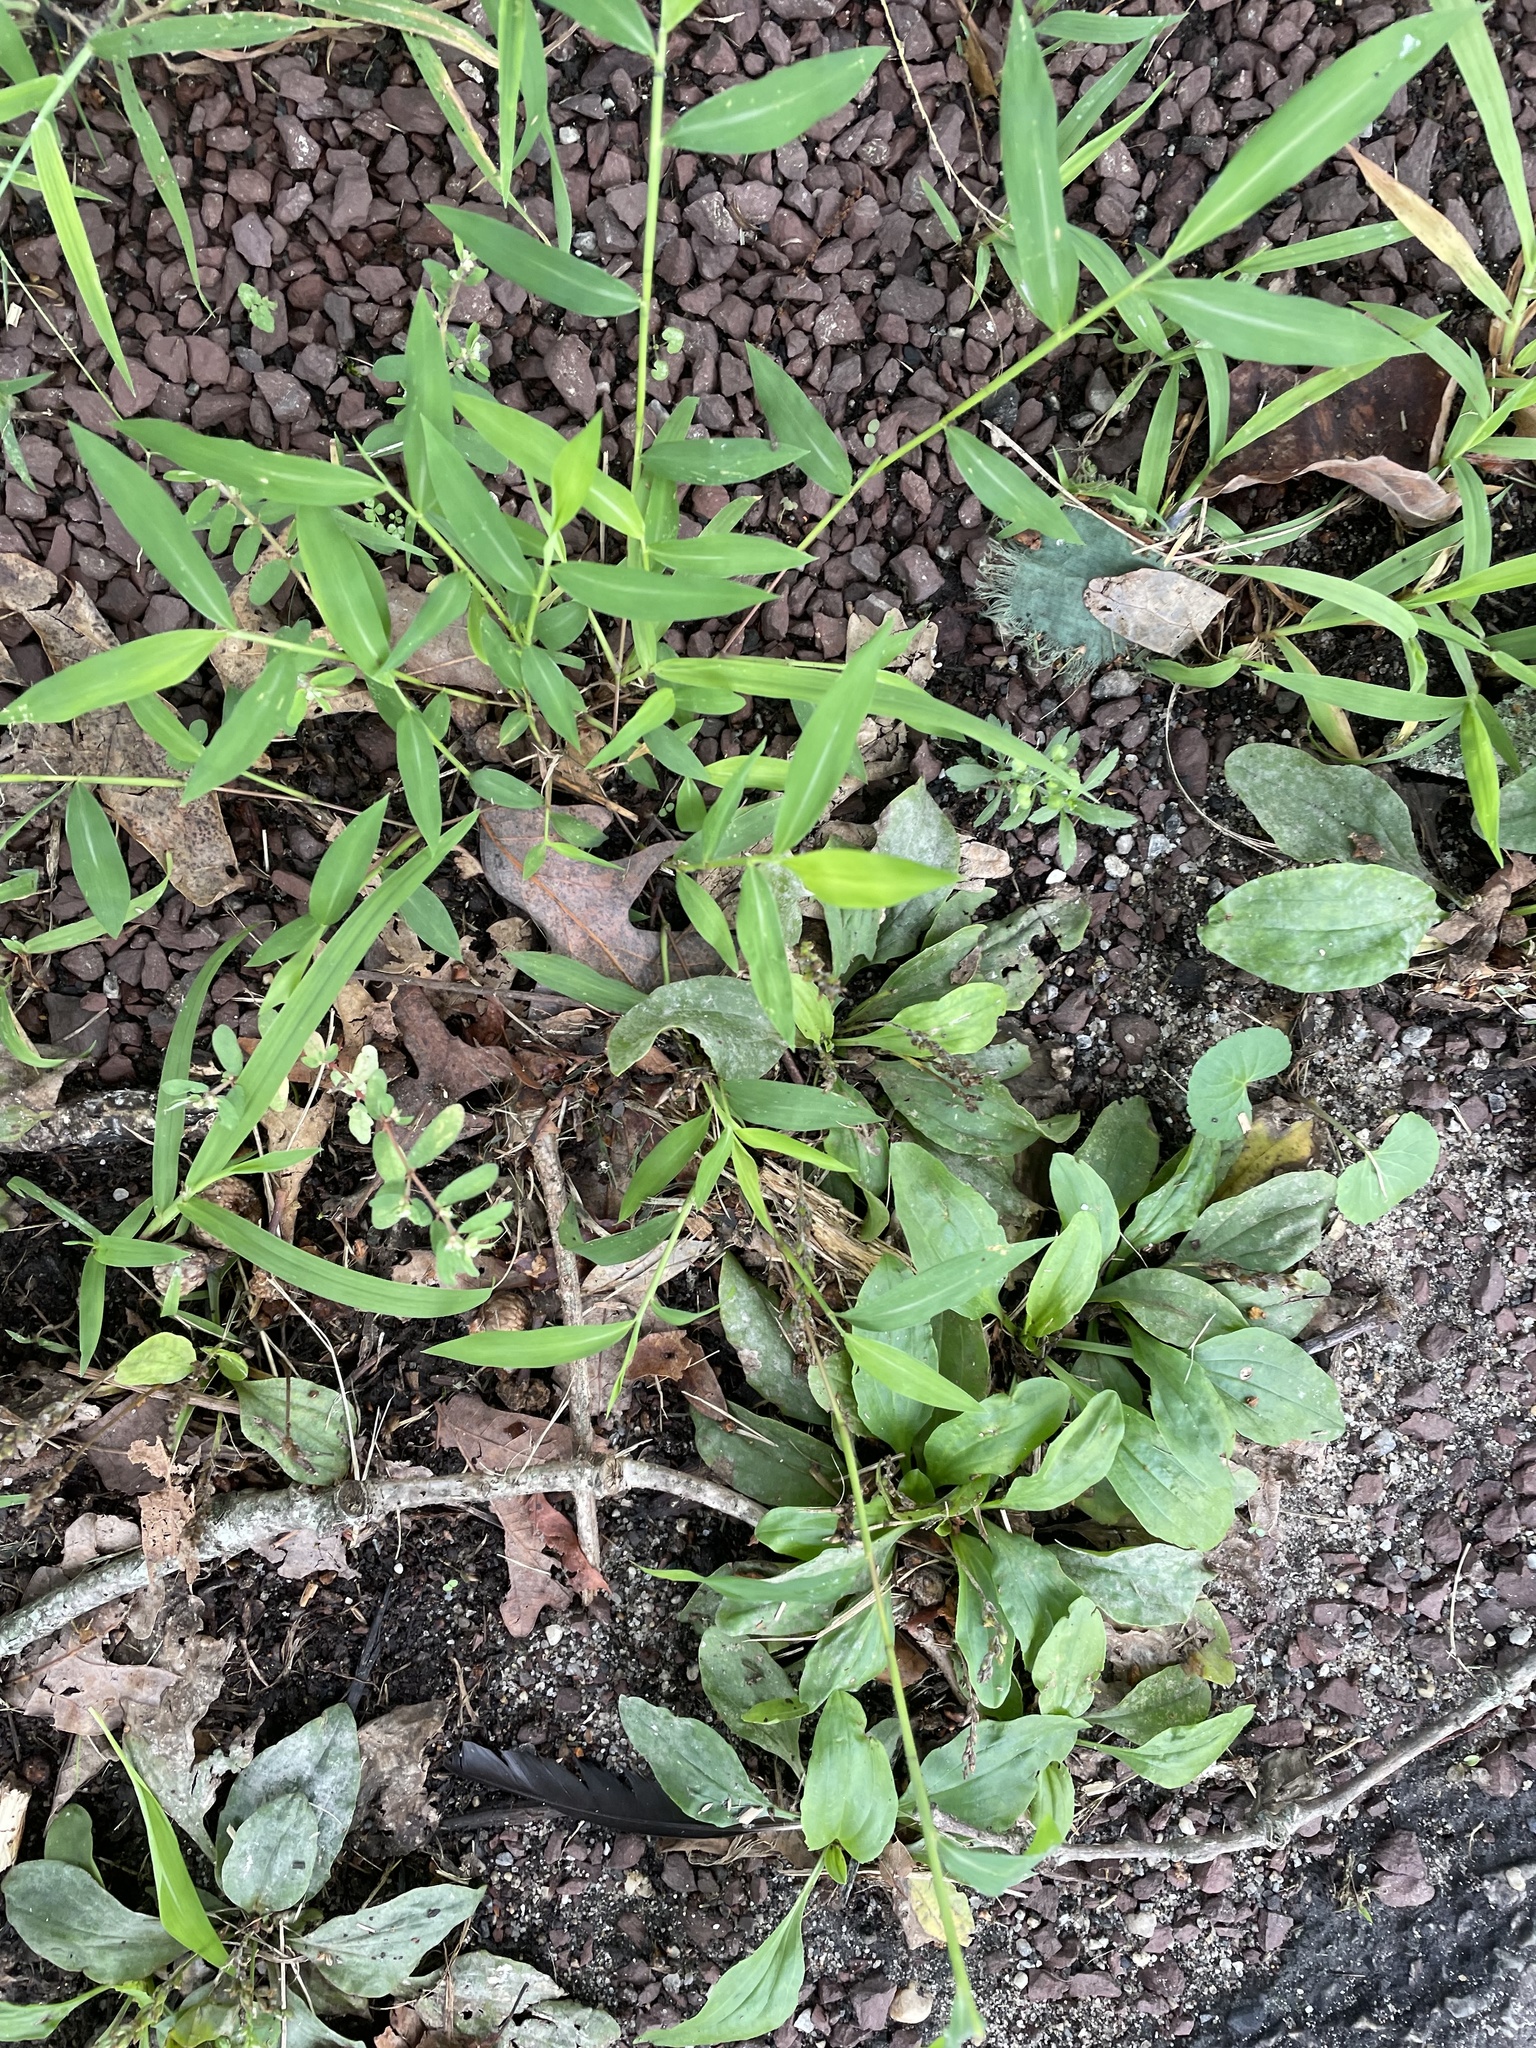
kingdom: Plantae
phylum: Tracheophyta
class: Liliopsida
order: Poales
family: Poaceae
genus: Microstegium
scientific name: Microstegium vimineum
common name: Japanese stiltgrass
